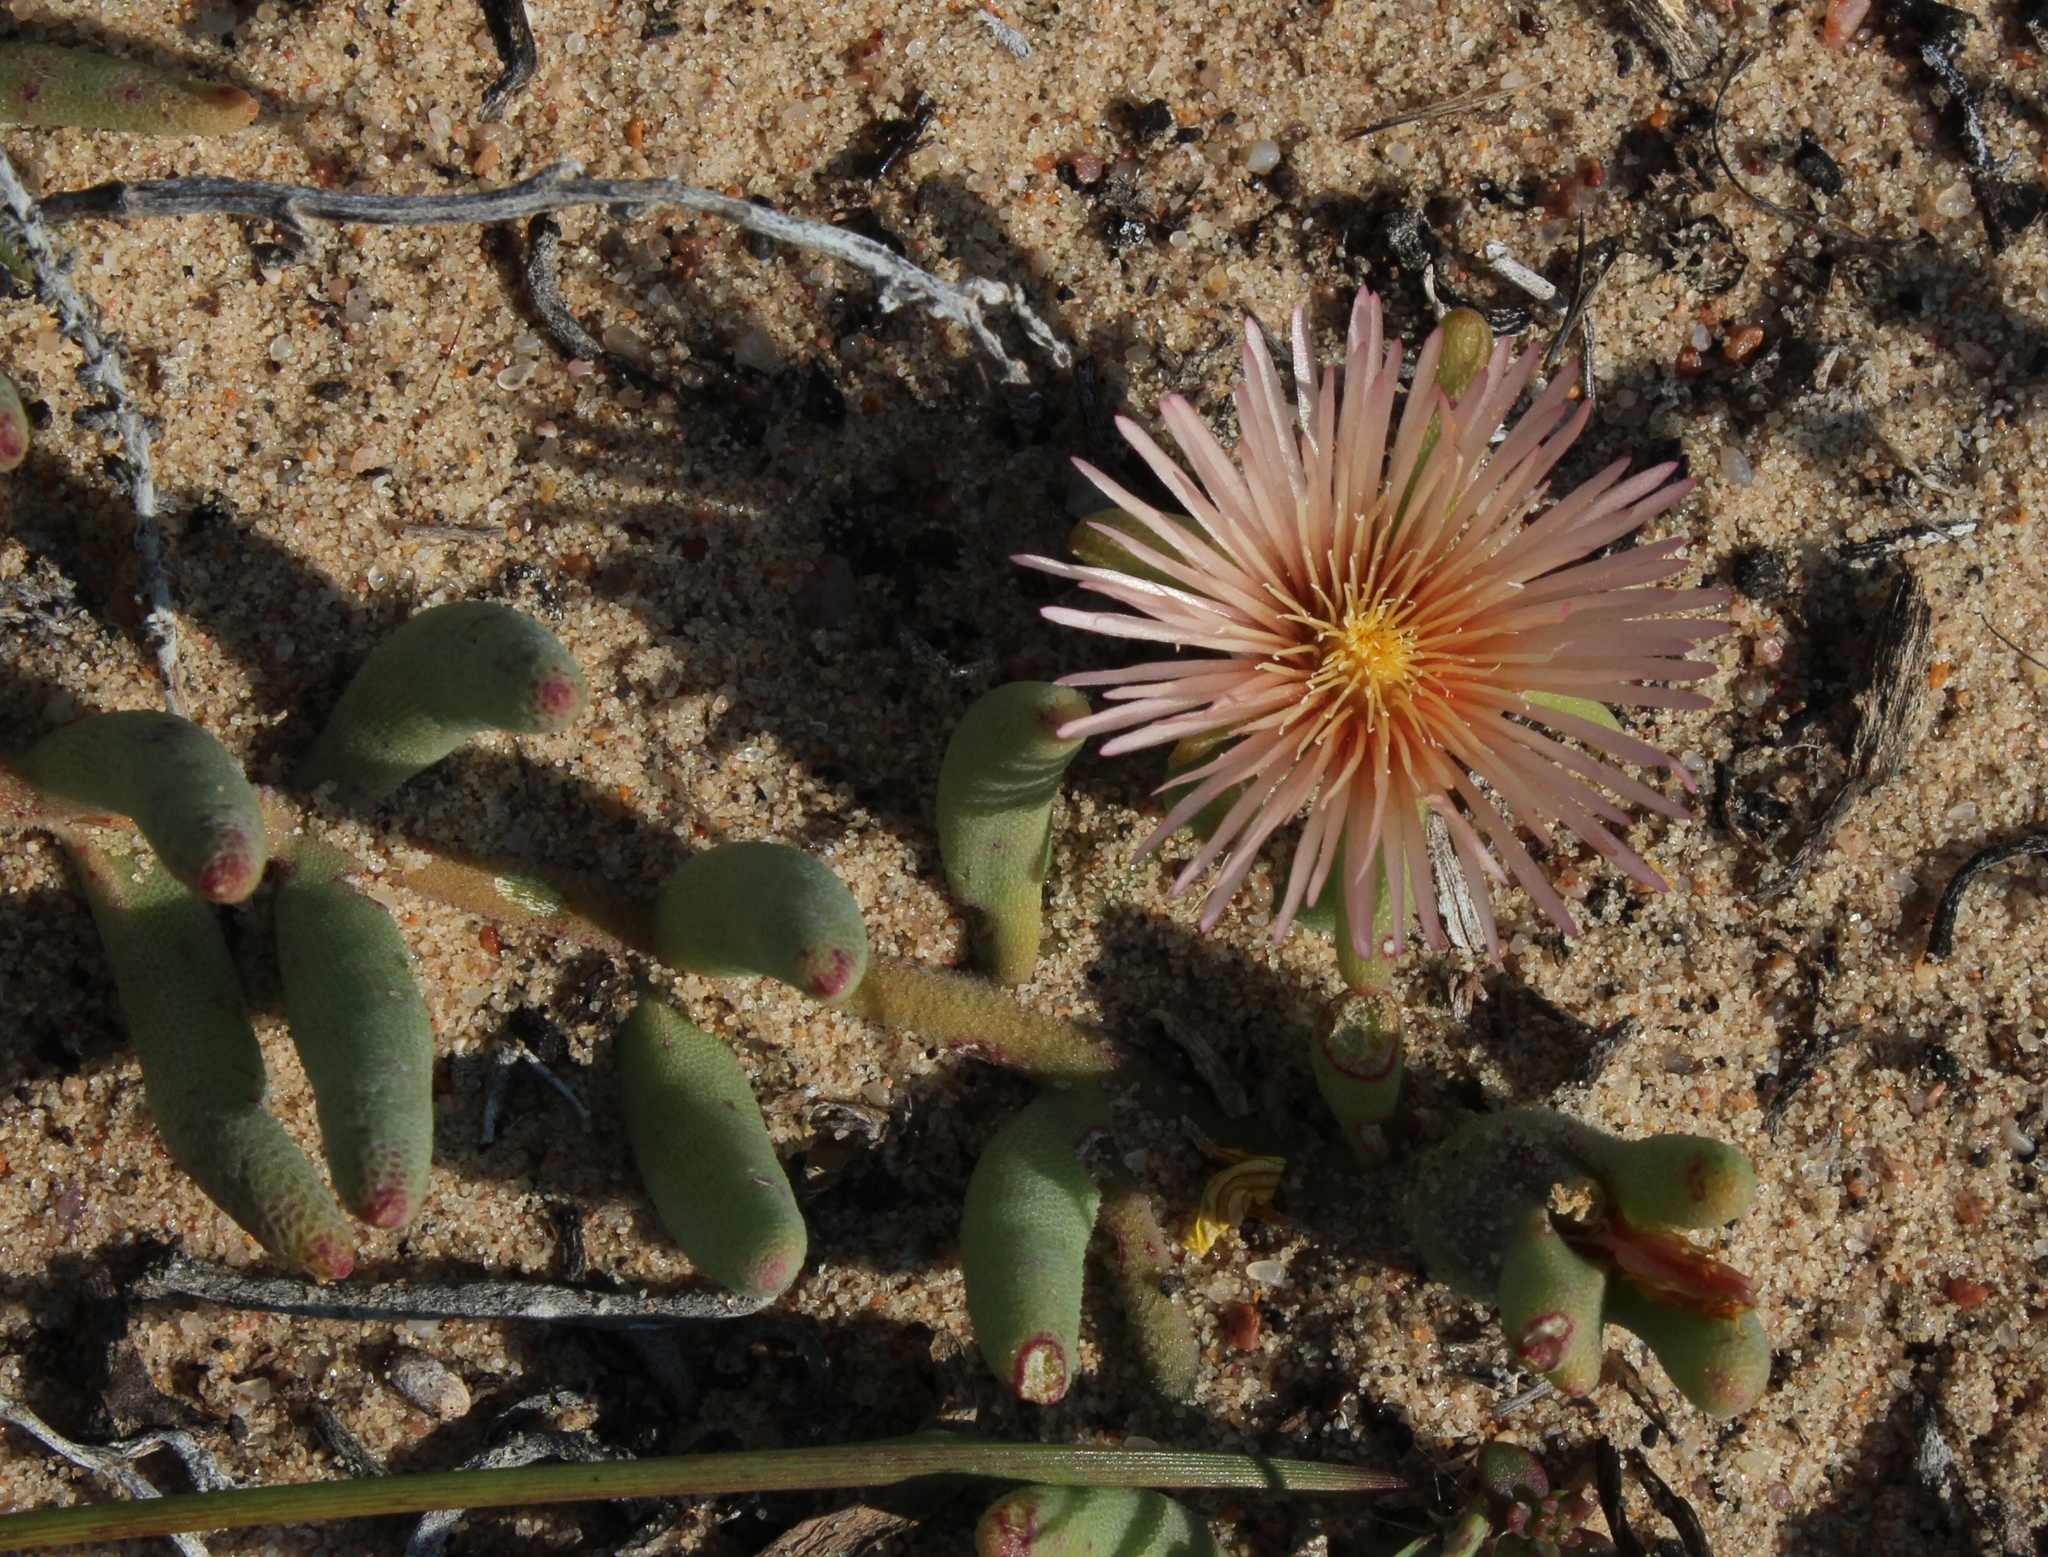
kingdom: Plantae
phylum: Tracheophyta
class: Magnoliopsida
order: Caryophyllales
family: Aizoaceae
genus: Mesembryanthemum
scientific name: Mesembryanthemum sinuosum
